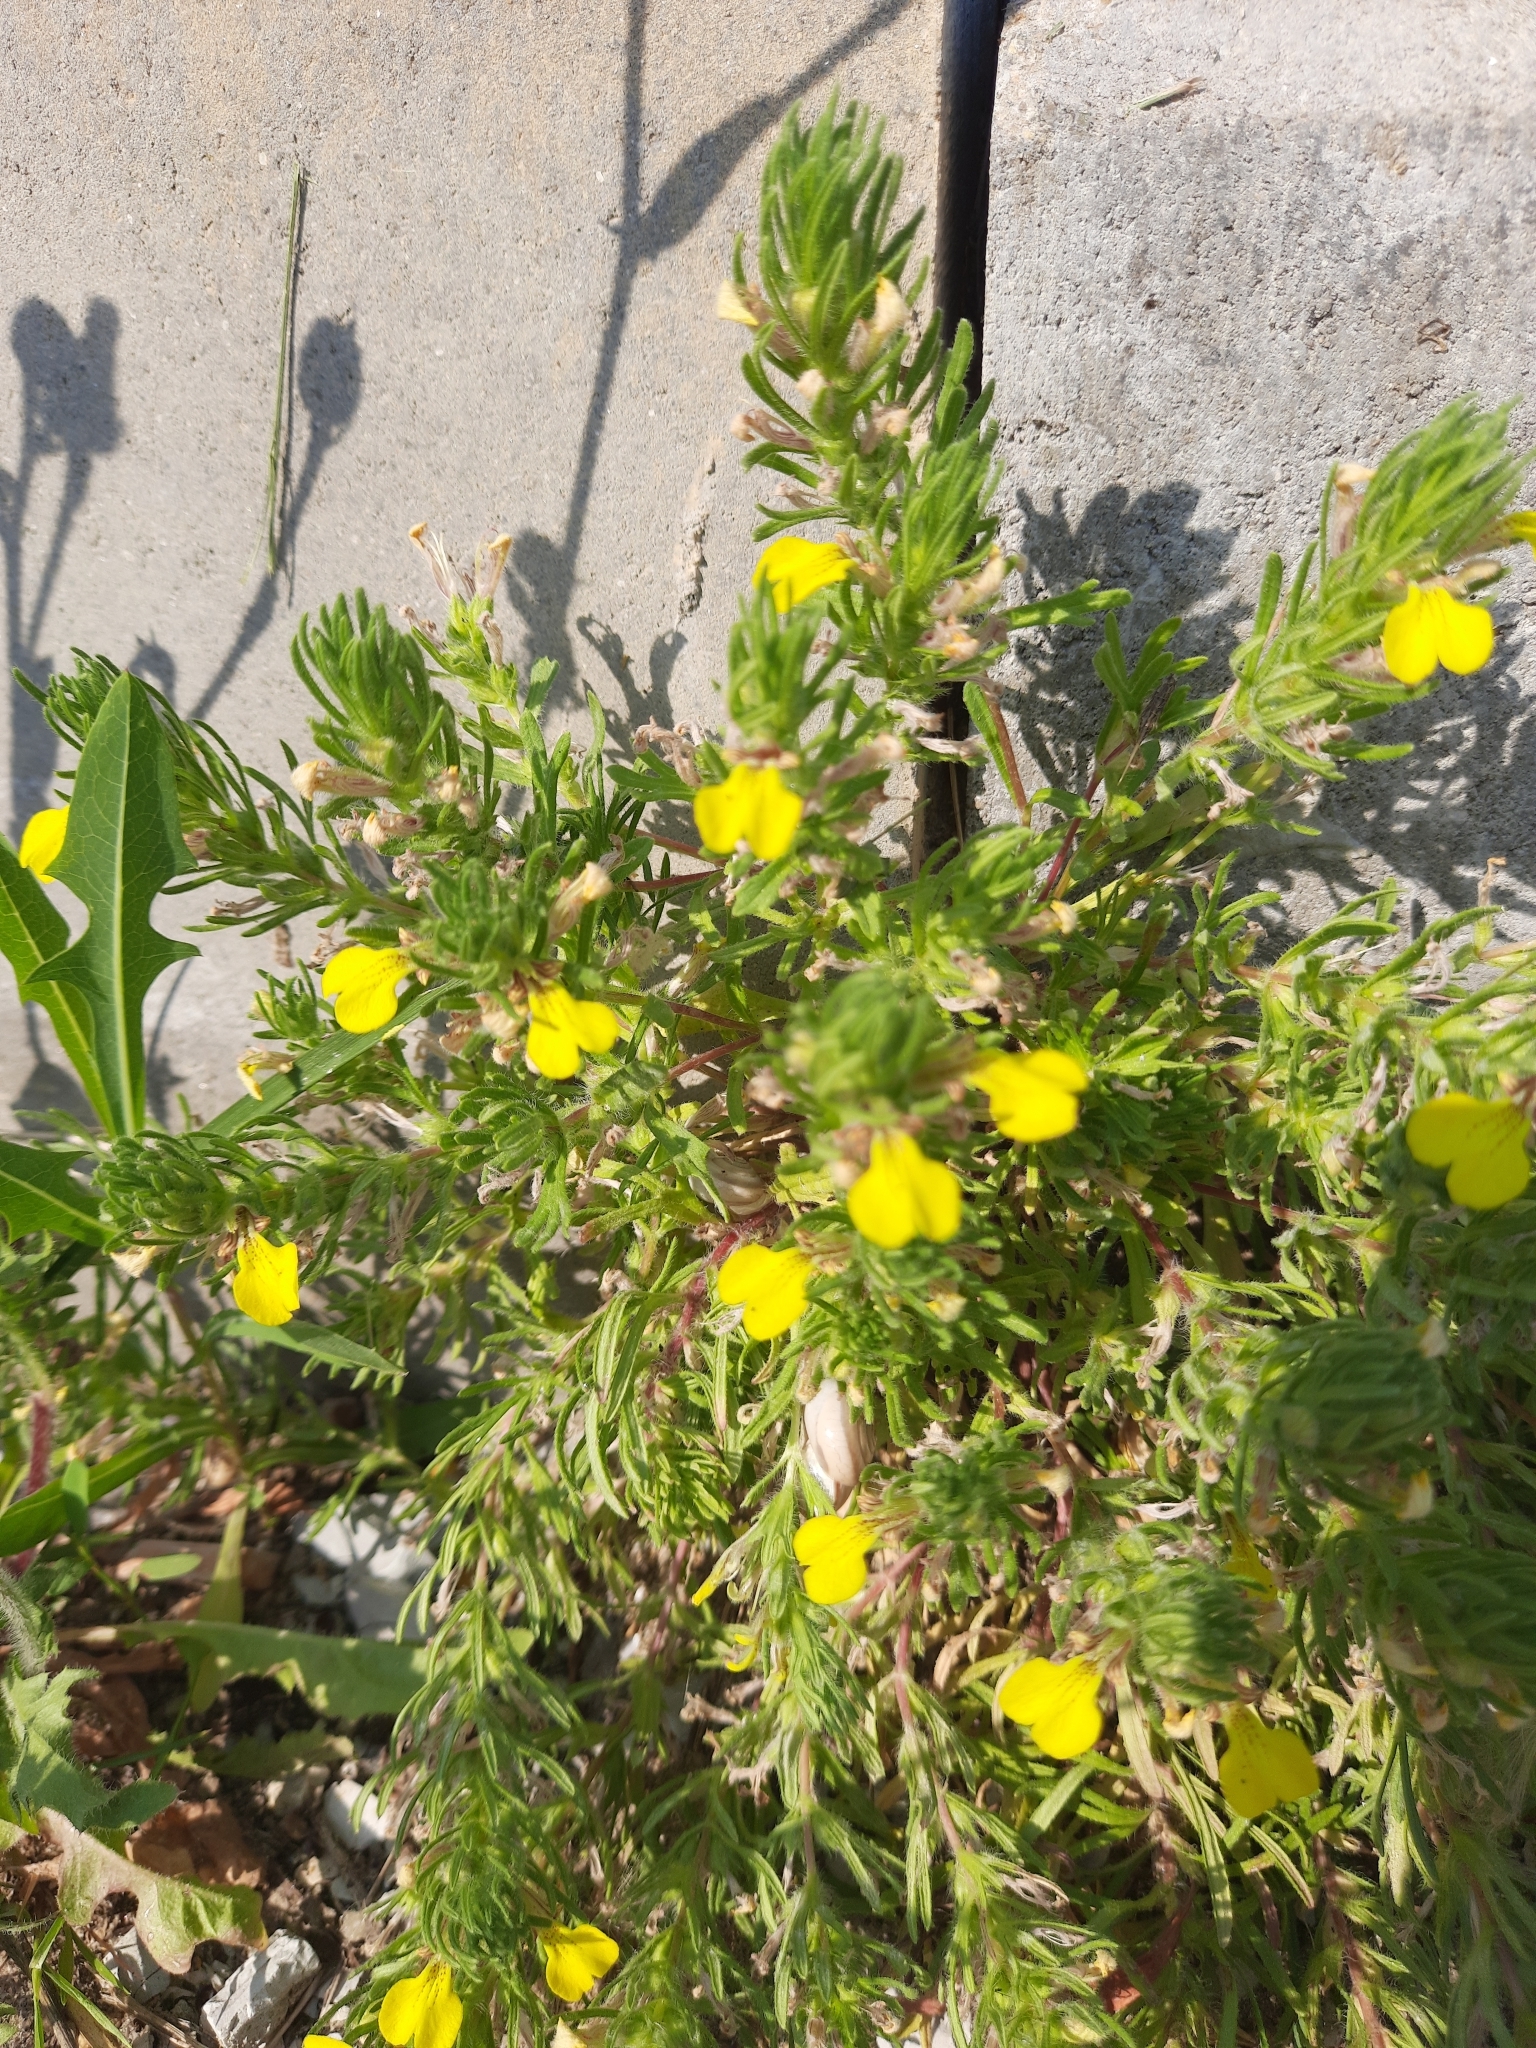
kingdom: Plantae
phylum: Tracheophyta
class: Magnoliopsida
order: Lamiales
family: Lamiaceae
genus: Ajuga
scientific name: Ajuga chamaepitys
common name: Ground-pine
